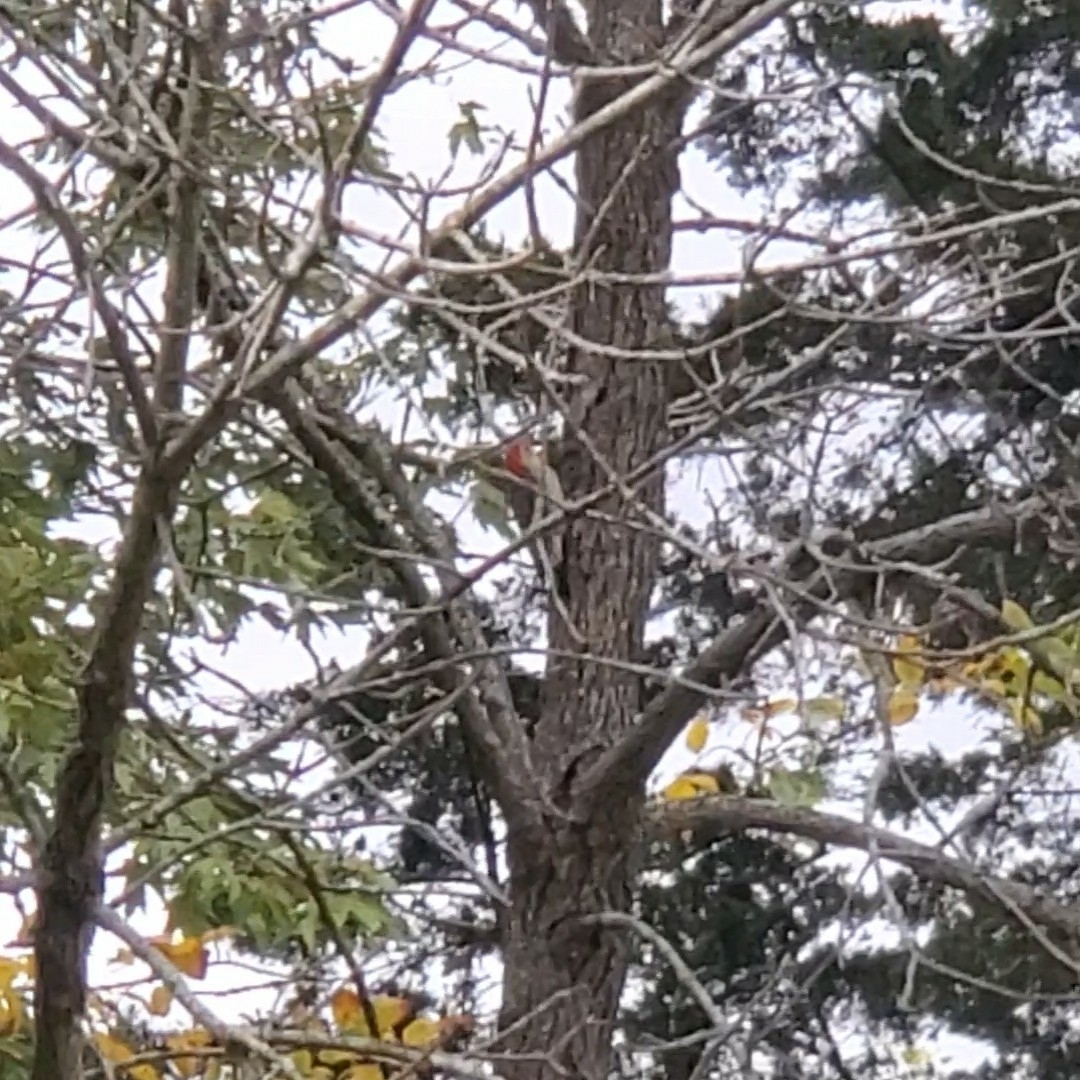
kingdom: Animalia
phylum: Chordata
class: Aves
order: Piciformes
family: Picidae
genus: Melanerpes
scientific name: Melanerpes carolinus
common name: Red-bellied woodpecker
